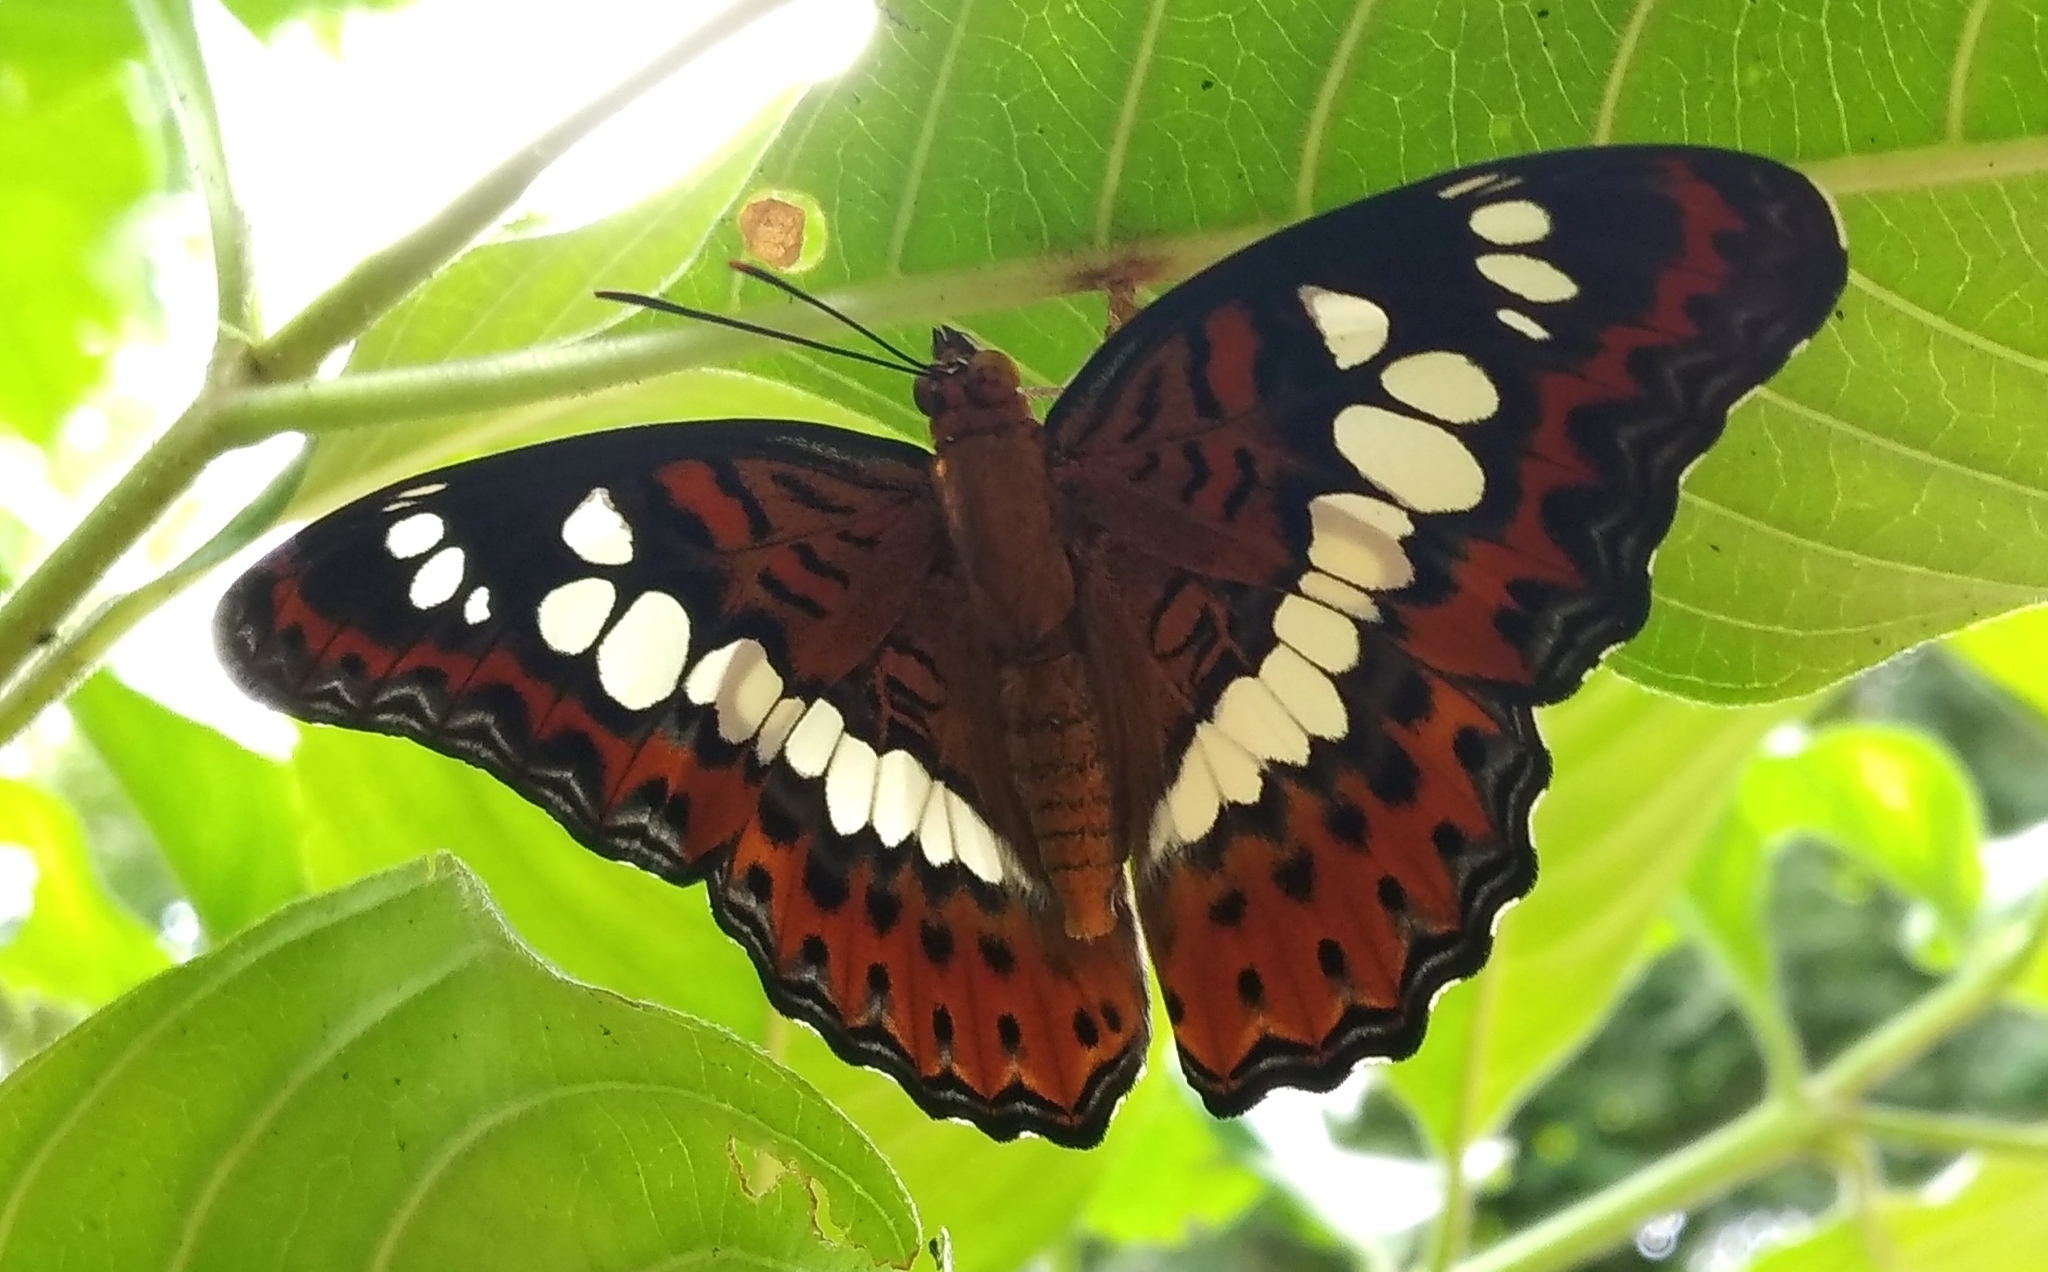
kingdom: Animalia
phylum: Arthropoda
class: Insecta
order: Lepidoptera
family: Nymphalidae
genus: Limenitis
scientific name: Limenitis Moduza procris
